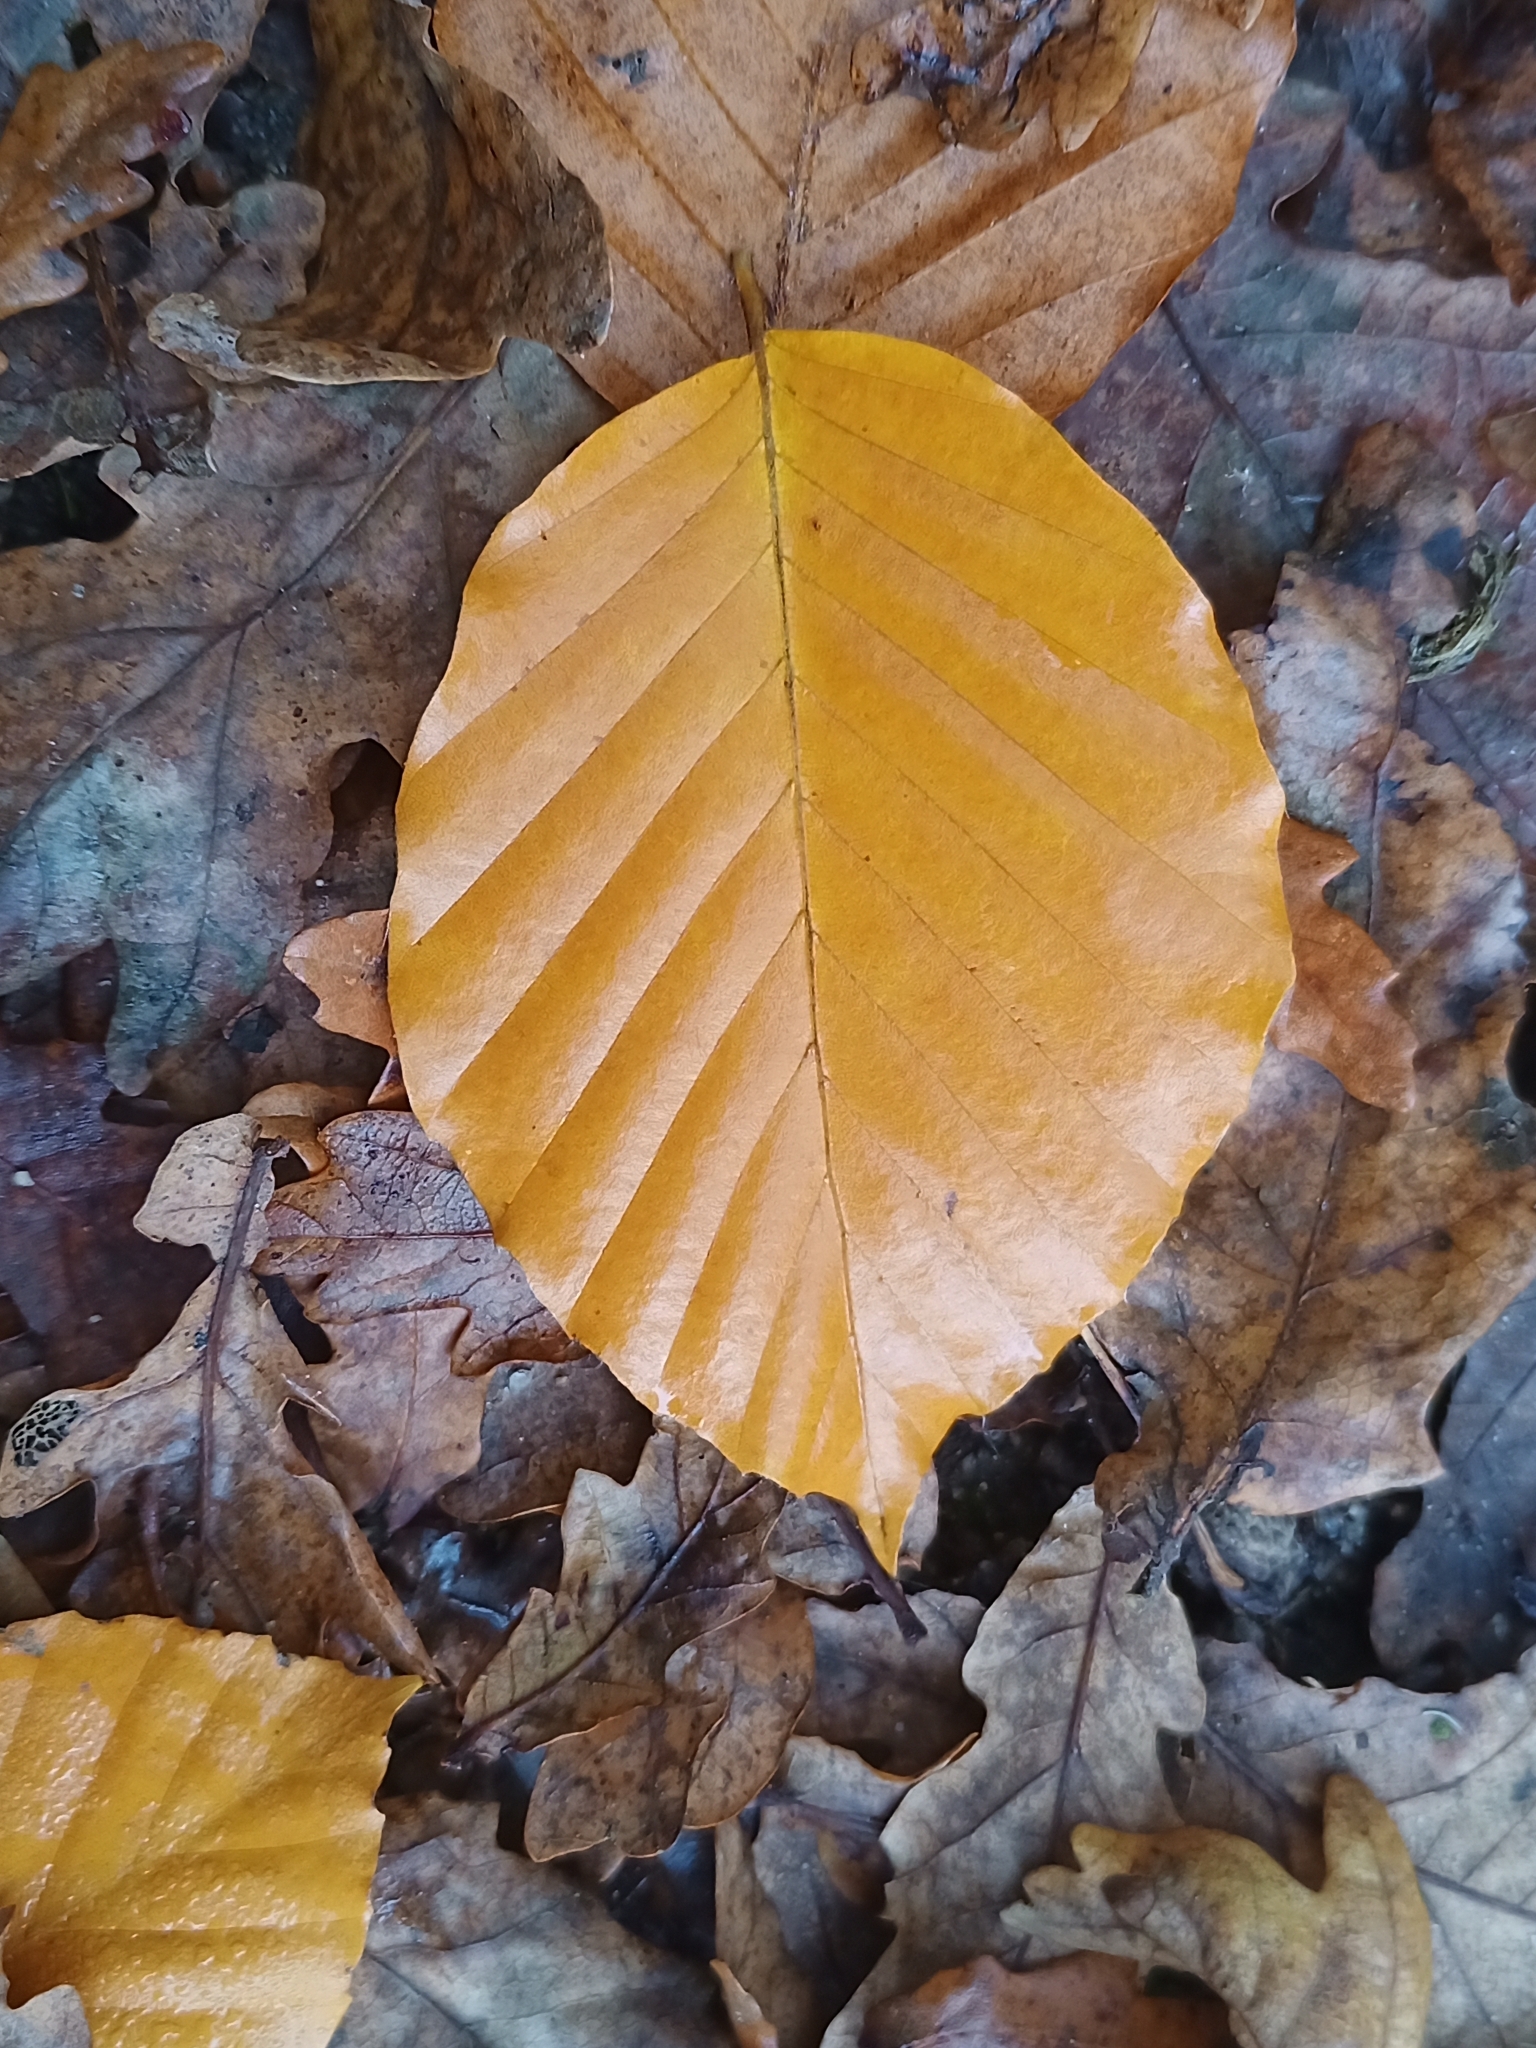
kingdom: Plantae
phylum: Tracheophyta
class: Magnoliopsida
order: Fagales
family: Fagaceae
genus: Fagus
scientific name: Fagus sylvatica
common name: Beech
